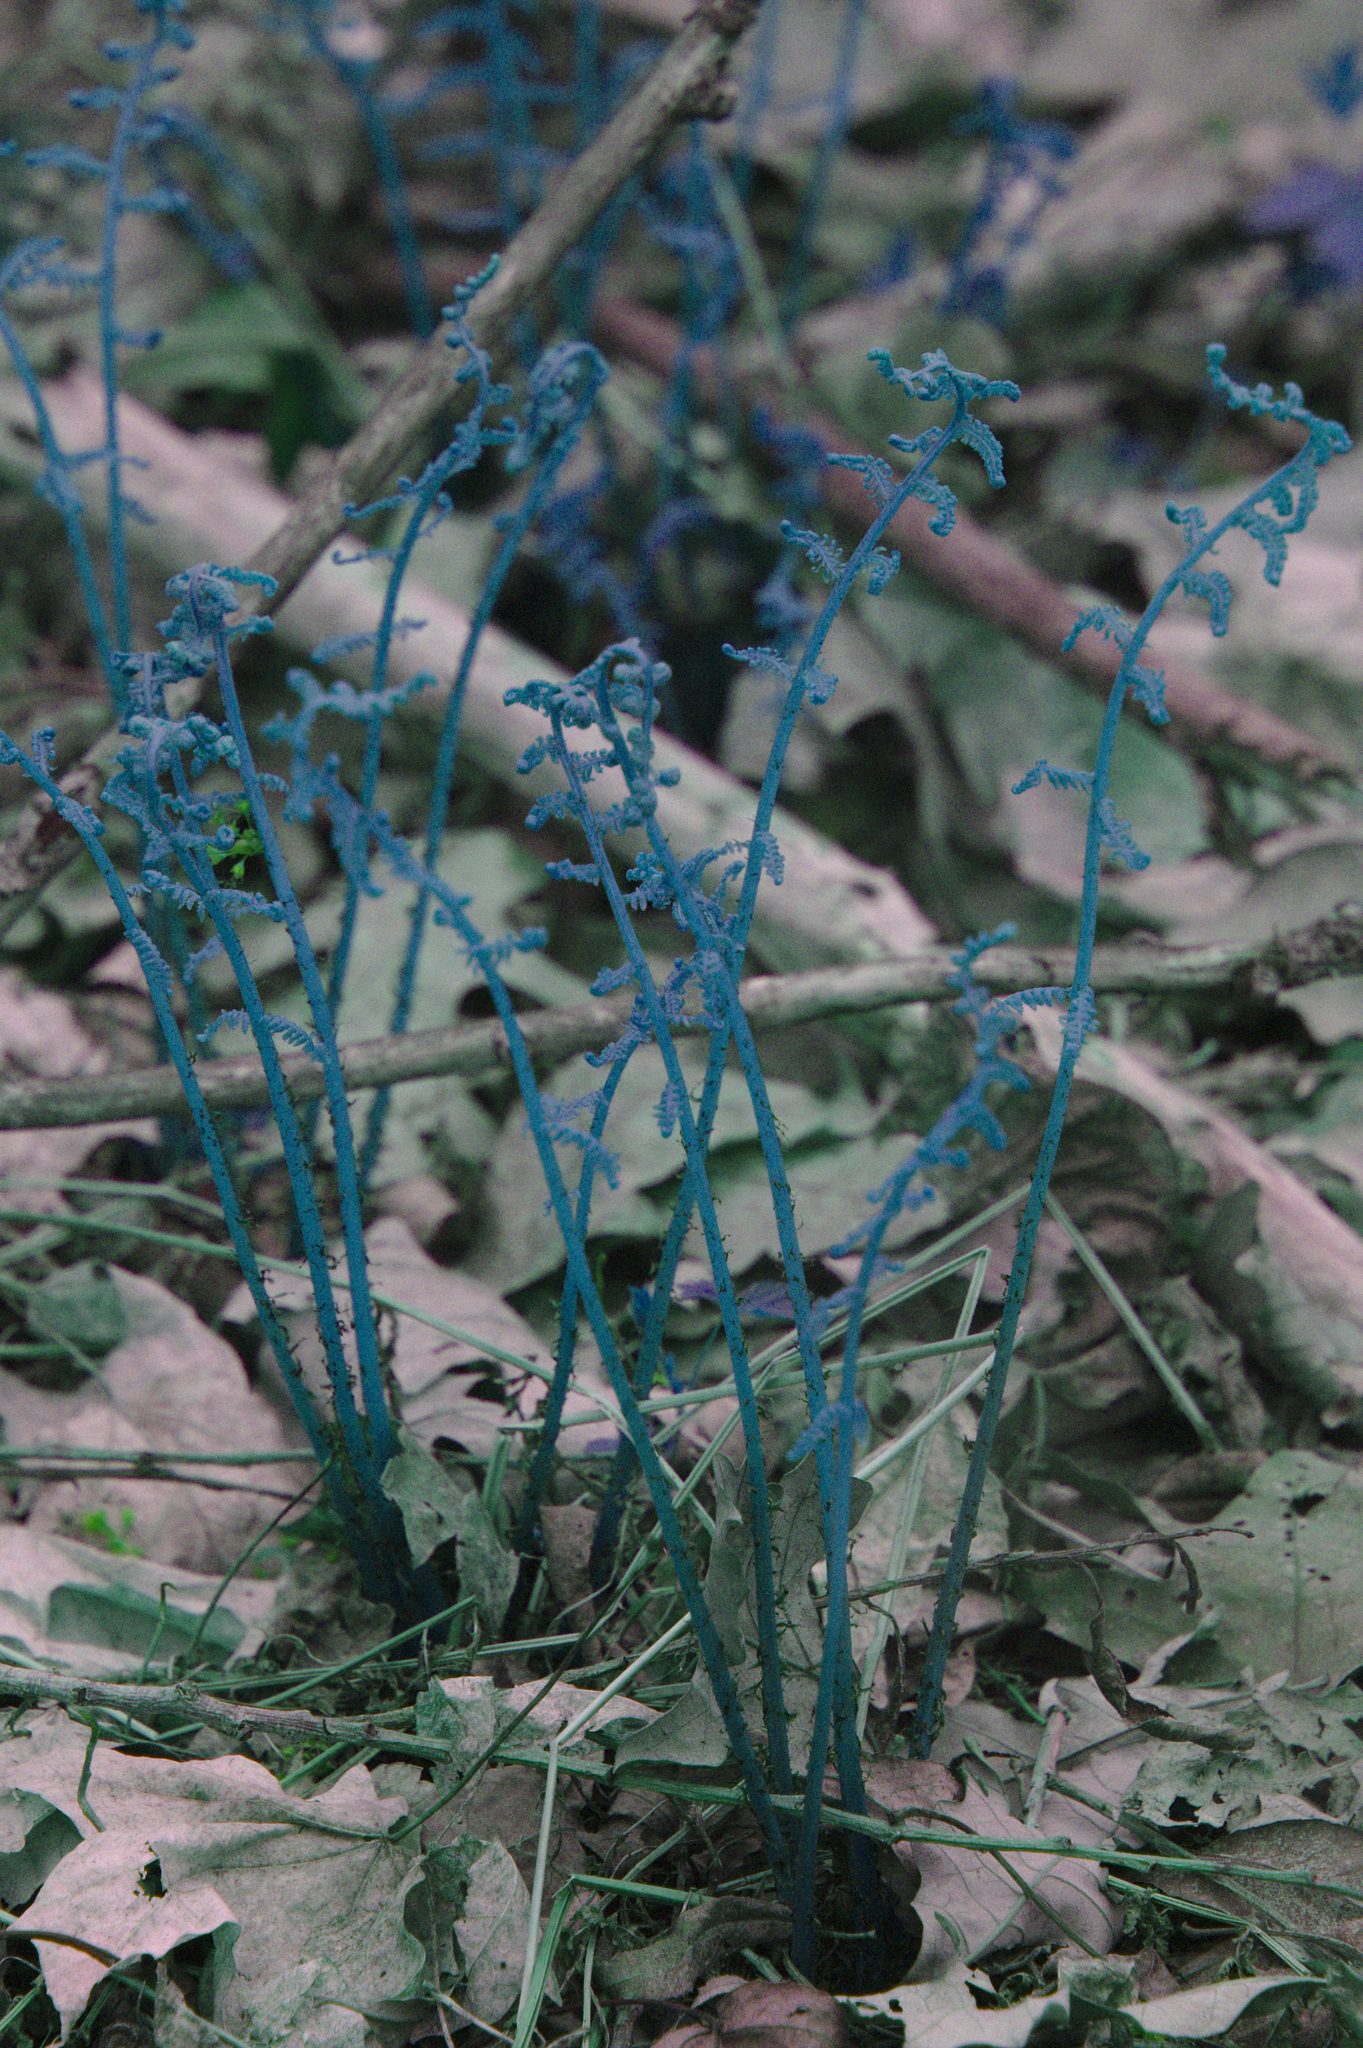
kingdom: Plantae
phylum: Tracheophyta
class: Polypodiopsida
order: Polypodiales
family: Athyriaceae
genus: Athyrium
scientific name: Athyrium angustum
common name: Northern lady fern
